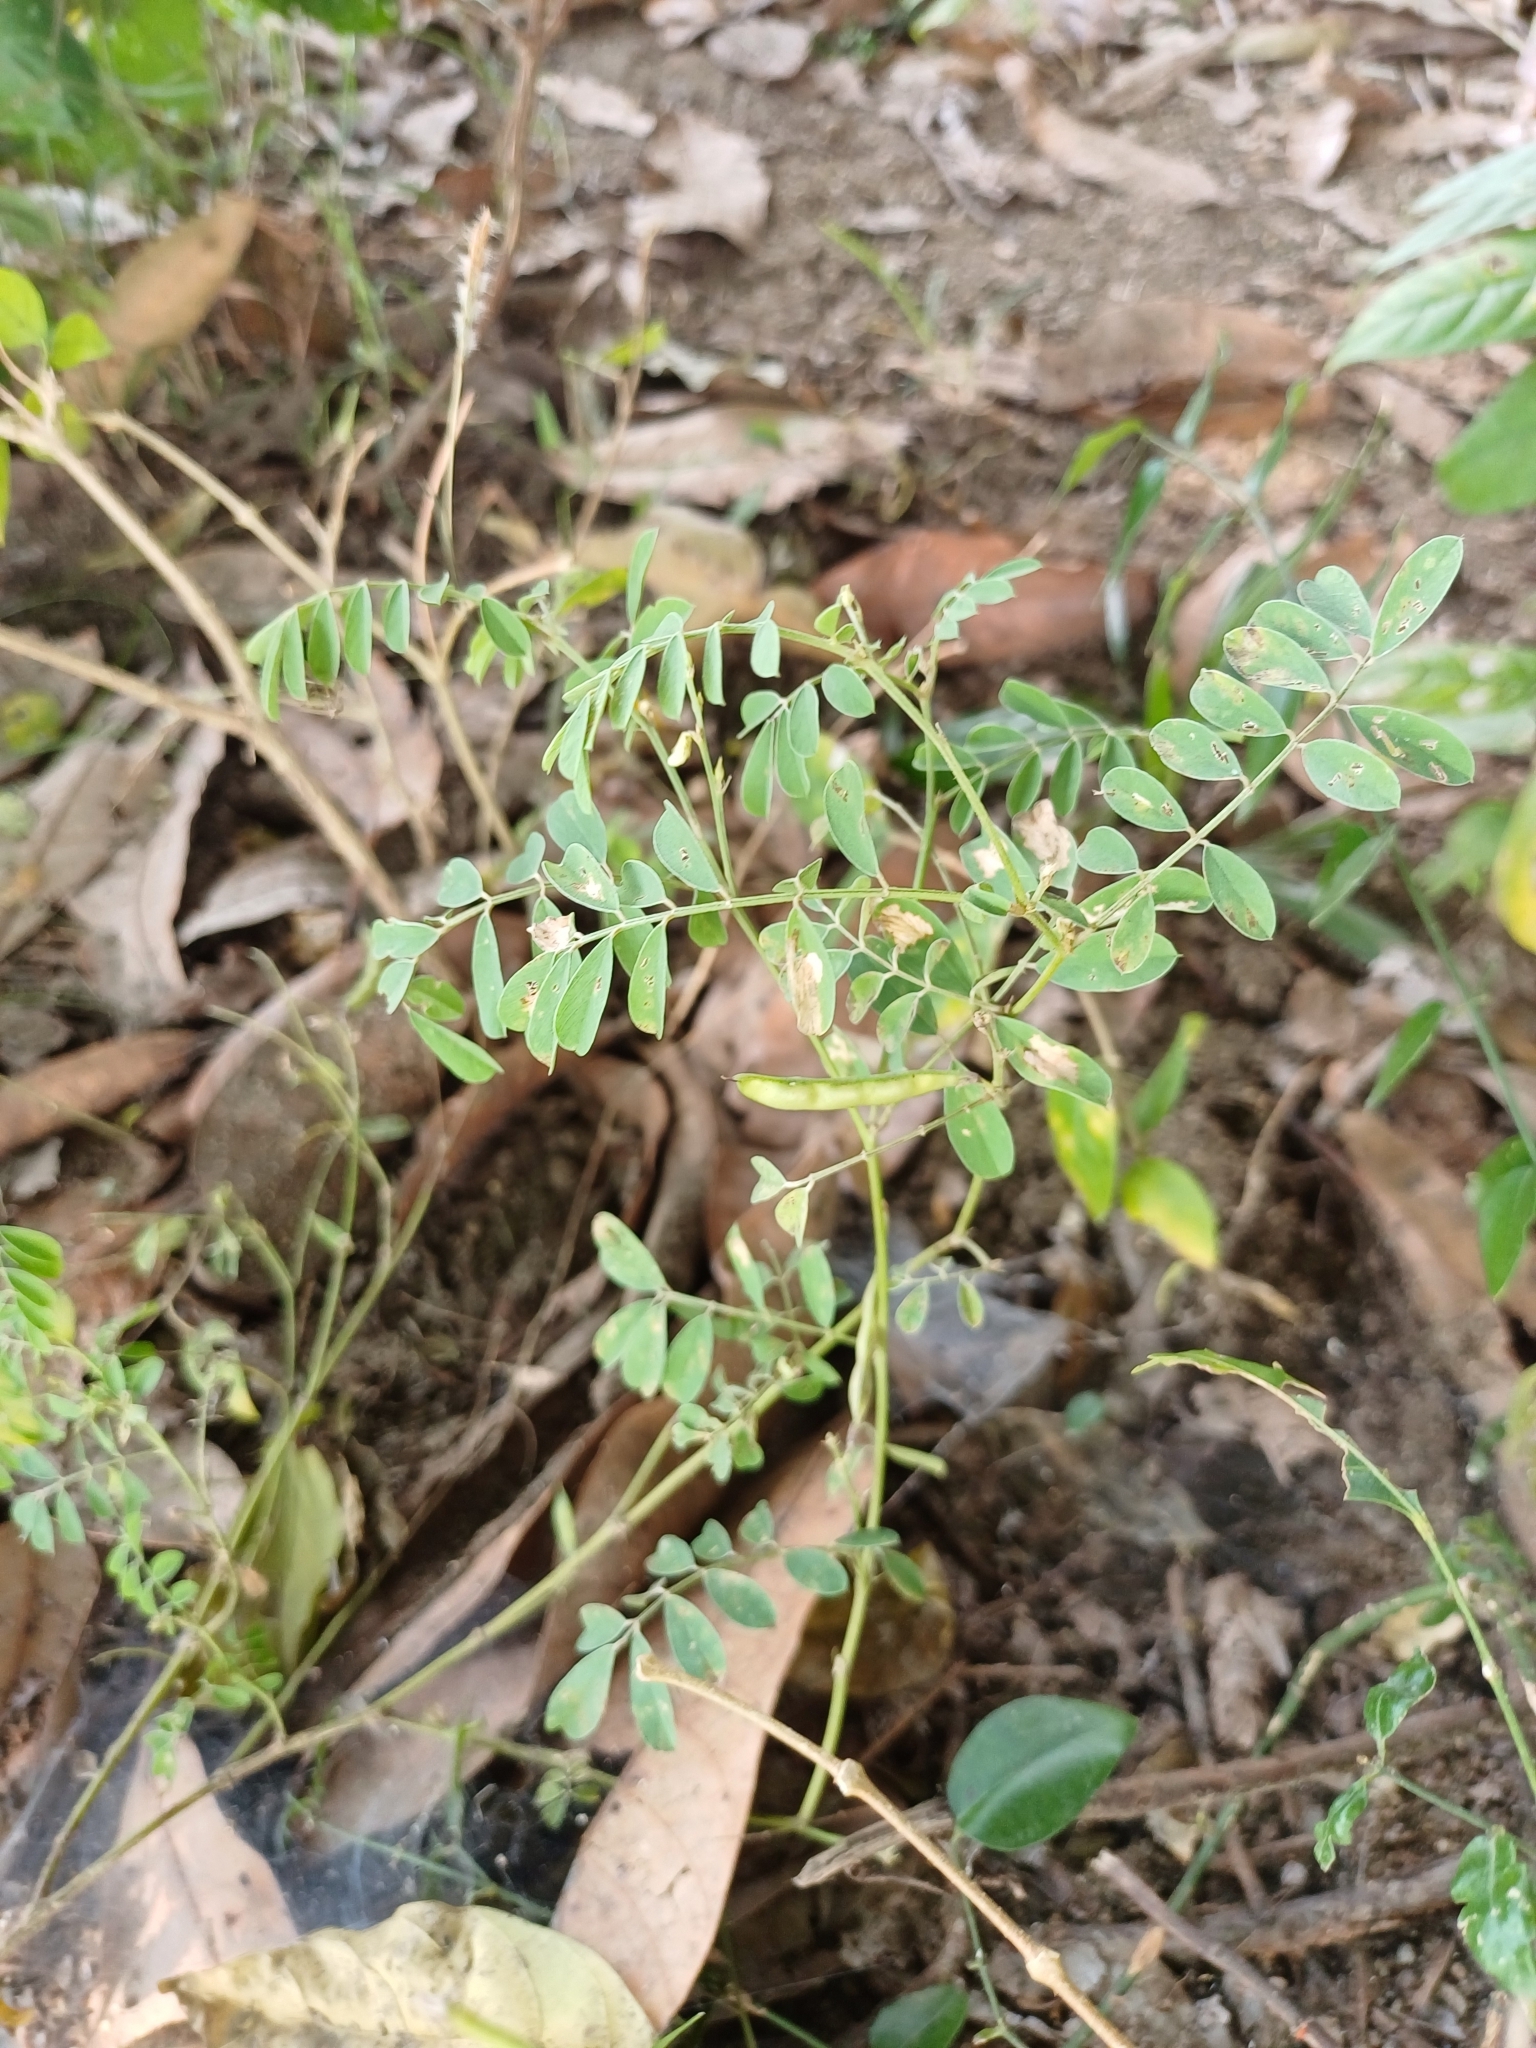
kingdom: Plantae
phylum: Tracheophyta
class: Magnoliopsida
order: Fabales
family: Fabaceae
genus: Tephrosia
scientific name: Tephrosia purpurea
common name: Fishpoison
